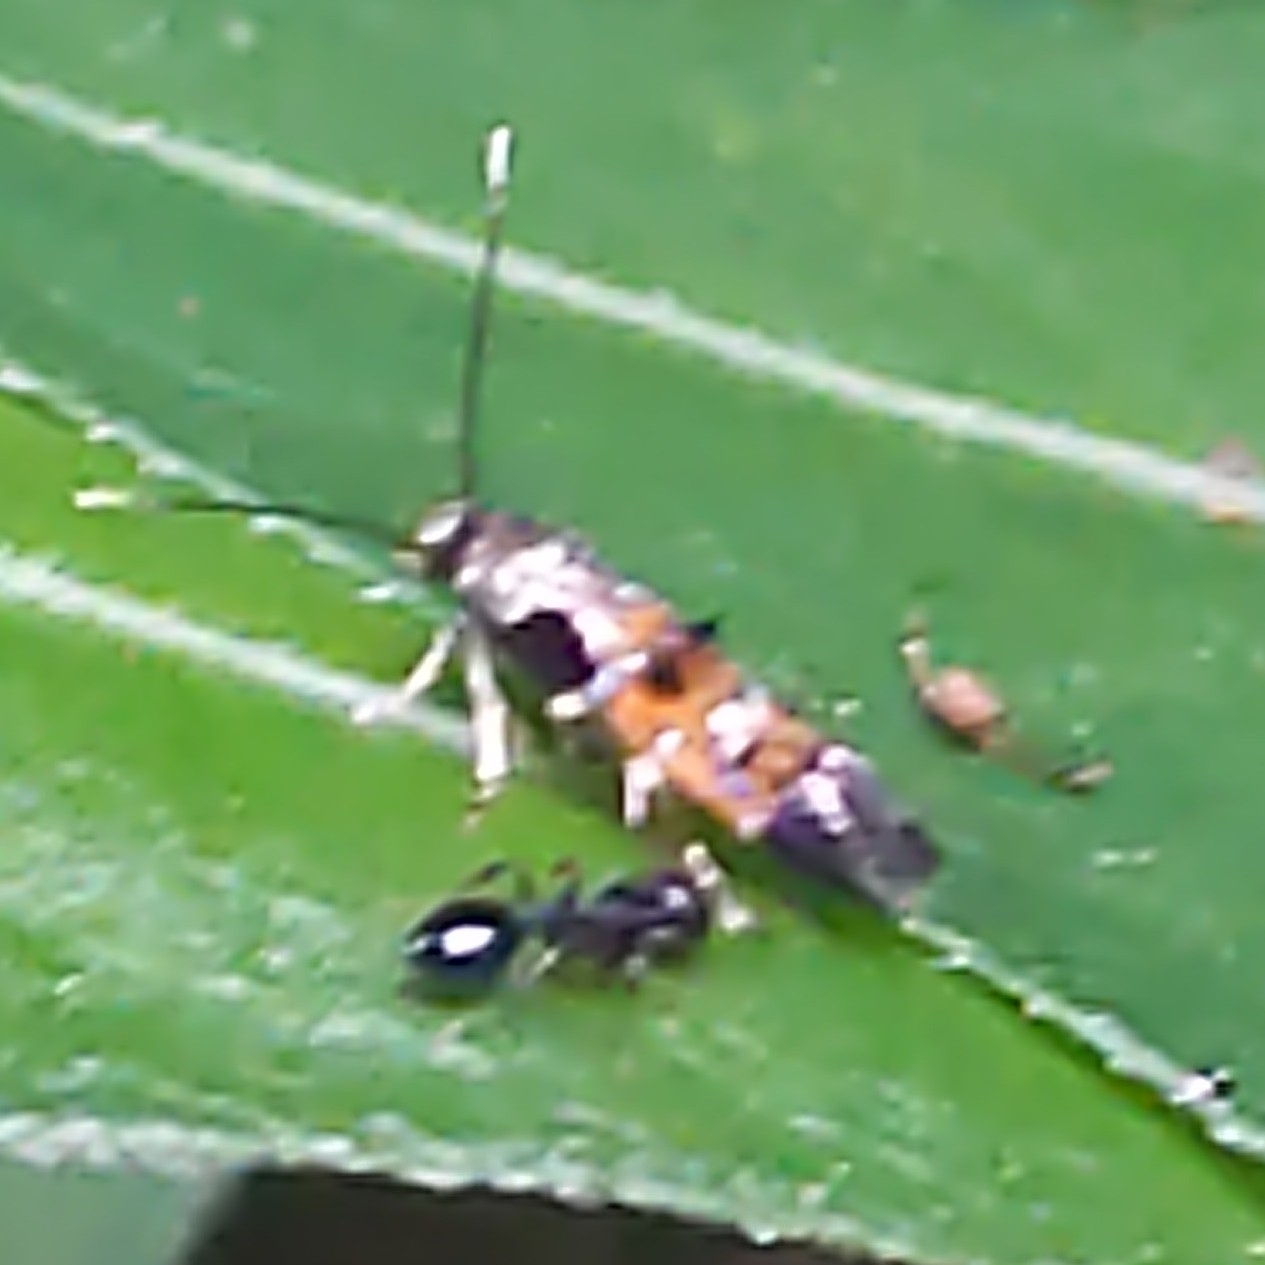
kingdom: Animalia
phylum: Arthropoda
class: Insecta
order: Lepidoptera
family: Momphidae
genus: Mompha
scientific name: Mompha terminella
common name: Enchanters cosmet
